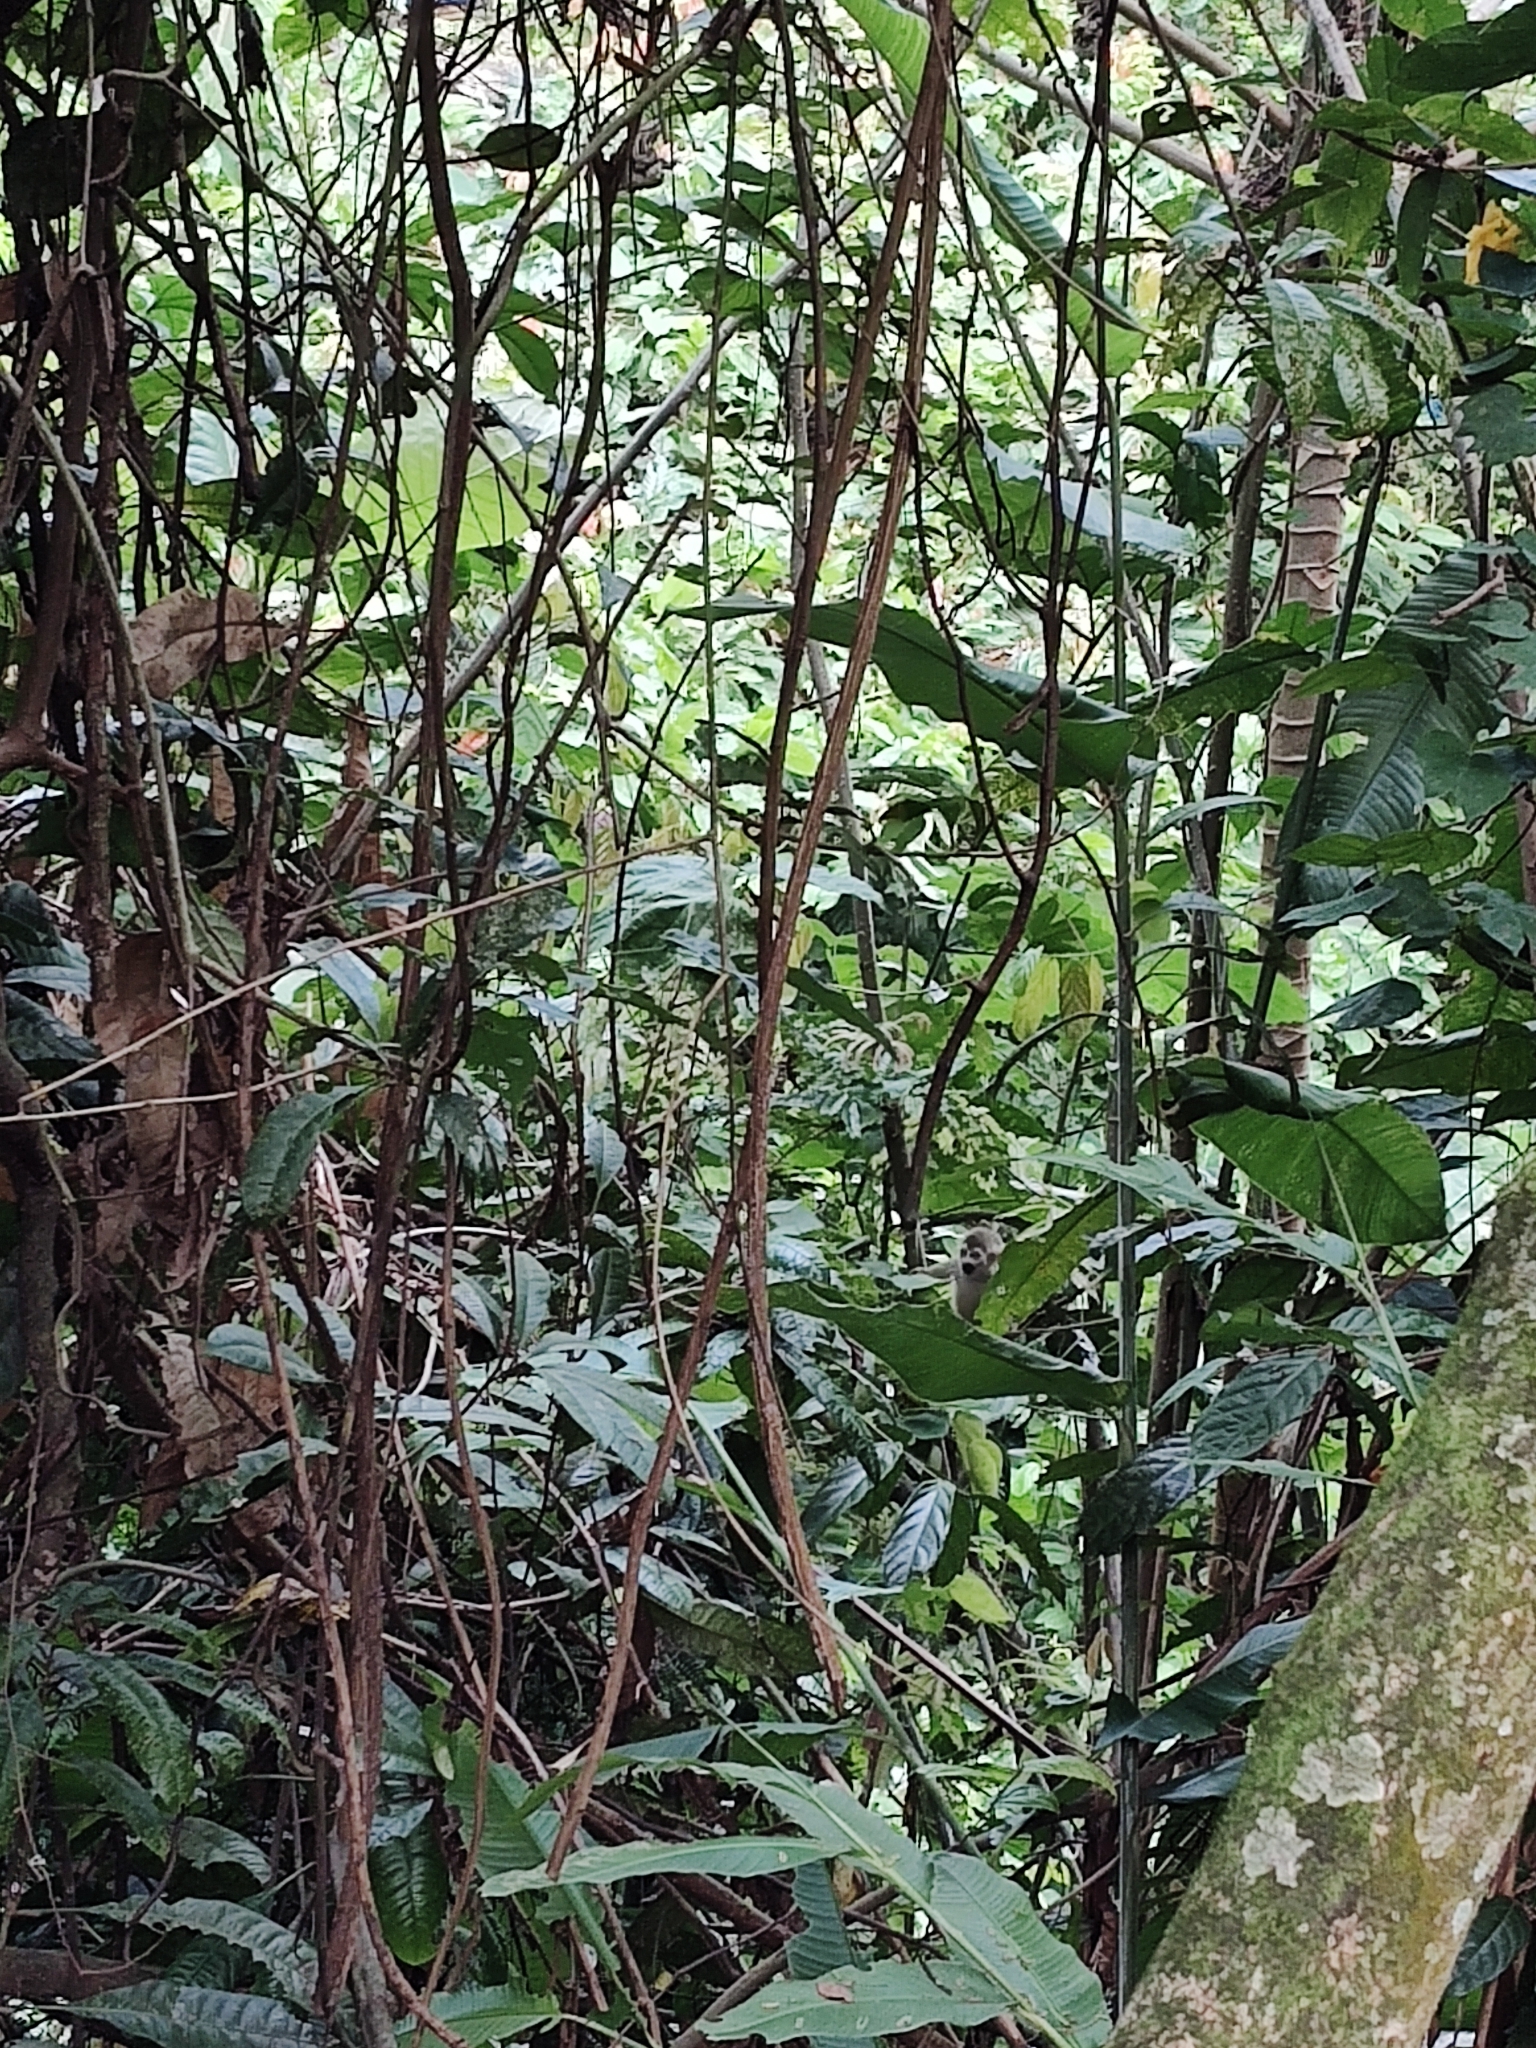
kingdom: Animalia
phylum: Chordata
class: Mammalia
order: Primates
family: Cebidae
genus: Saimiri
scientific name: Saimiri cassiquiarensis
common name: Humboldt’s squirrel monkey
